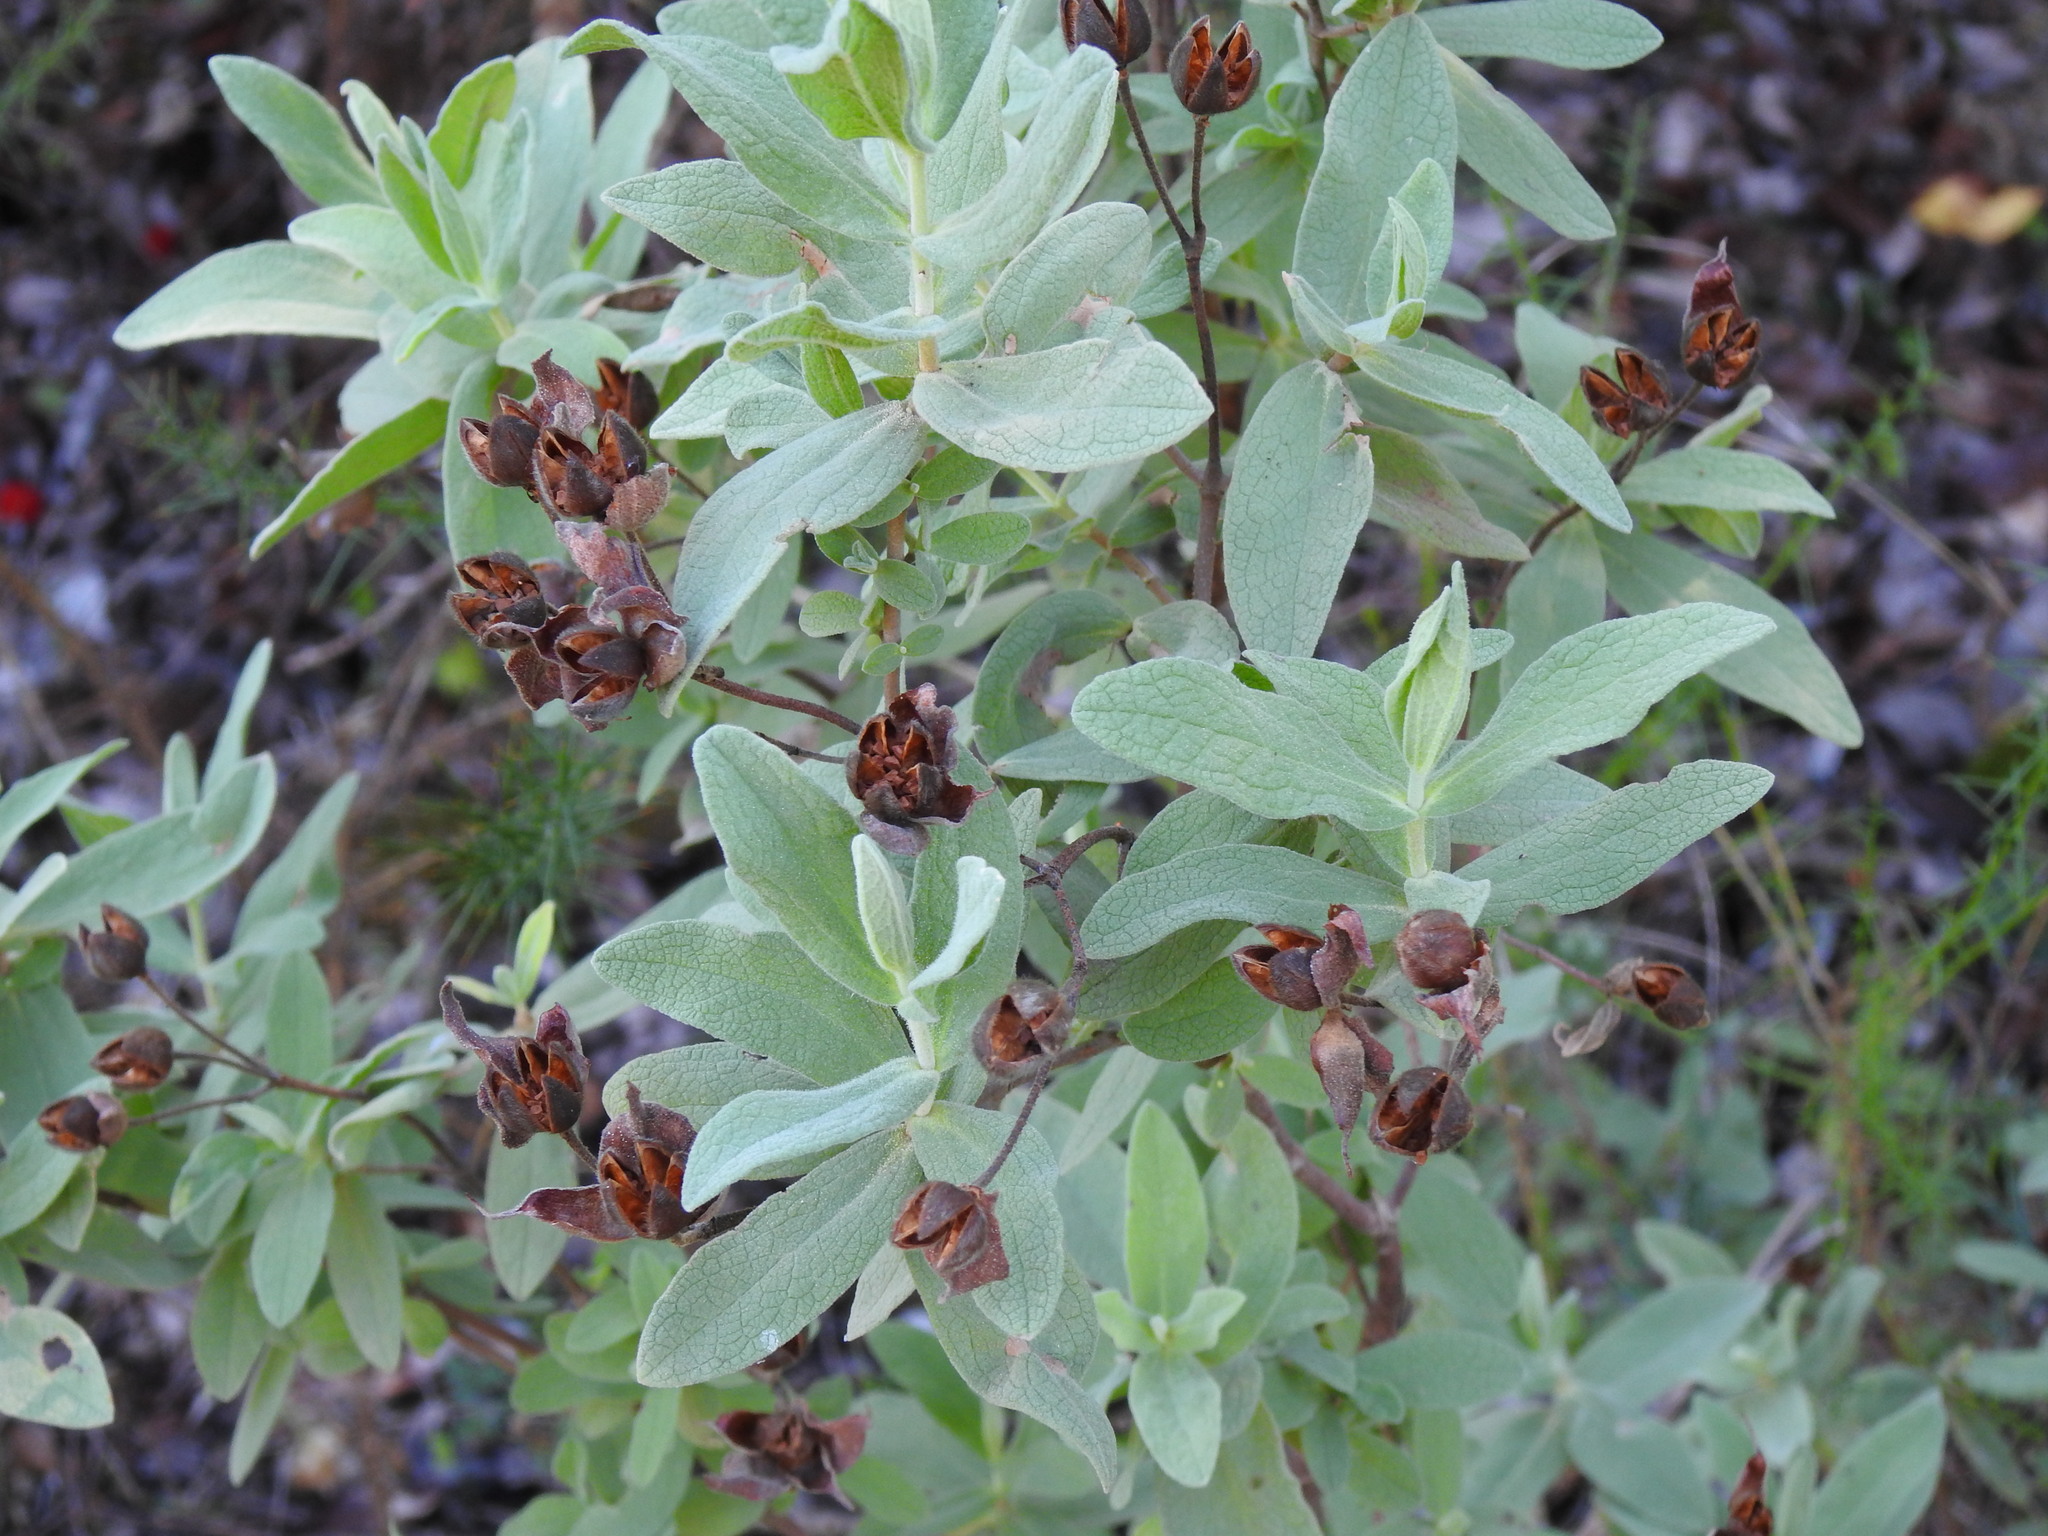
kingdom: Plantae
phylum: Tracheophyta
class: Magnoliopsida
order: Malvales
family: Cistaceae
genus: Cistus
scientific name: Cistus albidus
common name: White-leaf rock-rose
